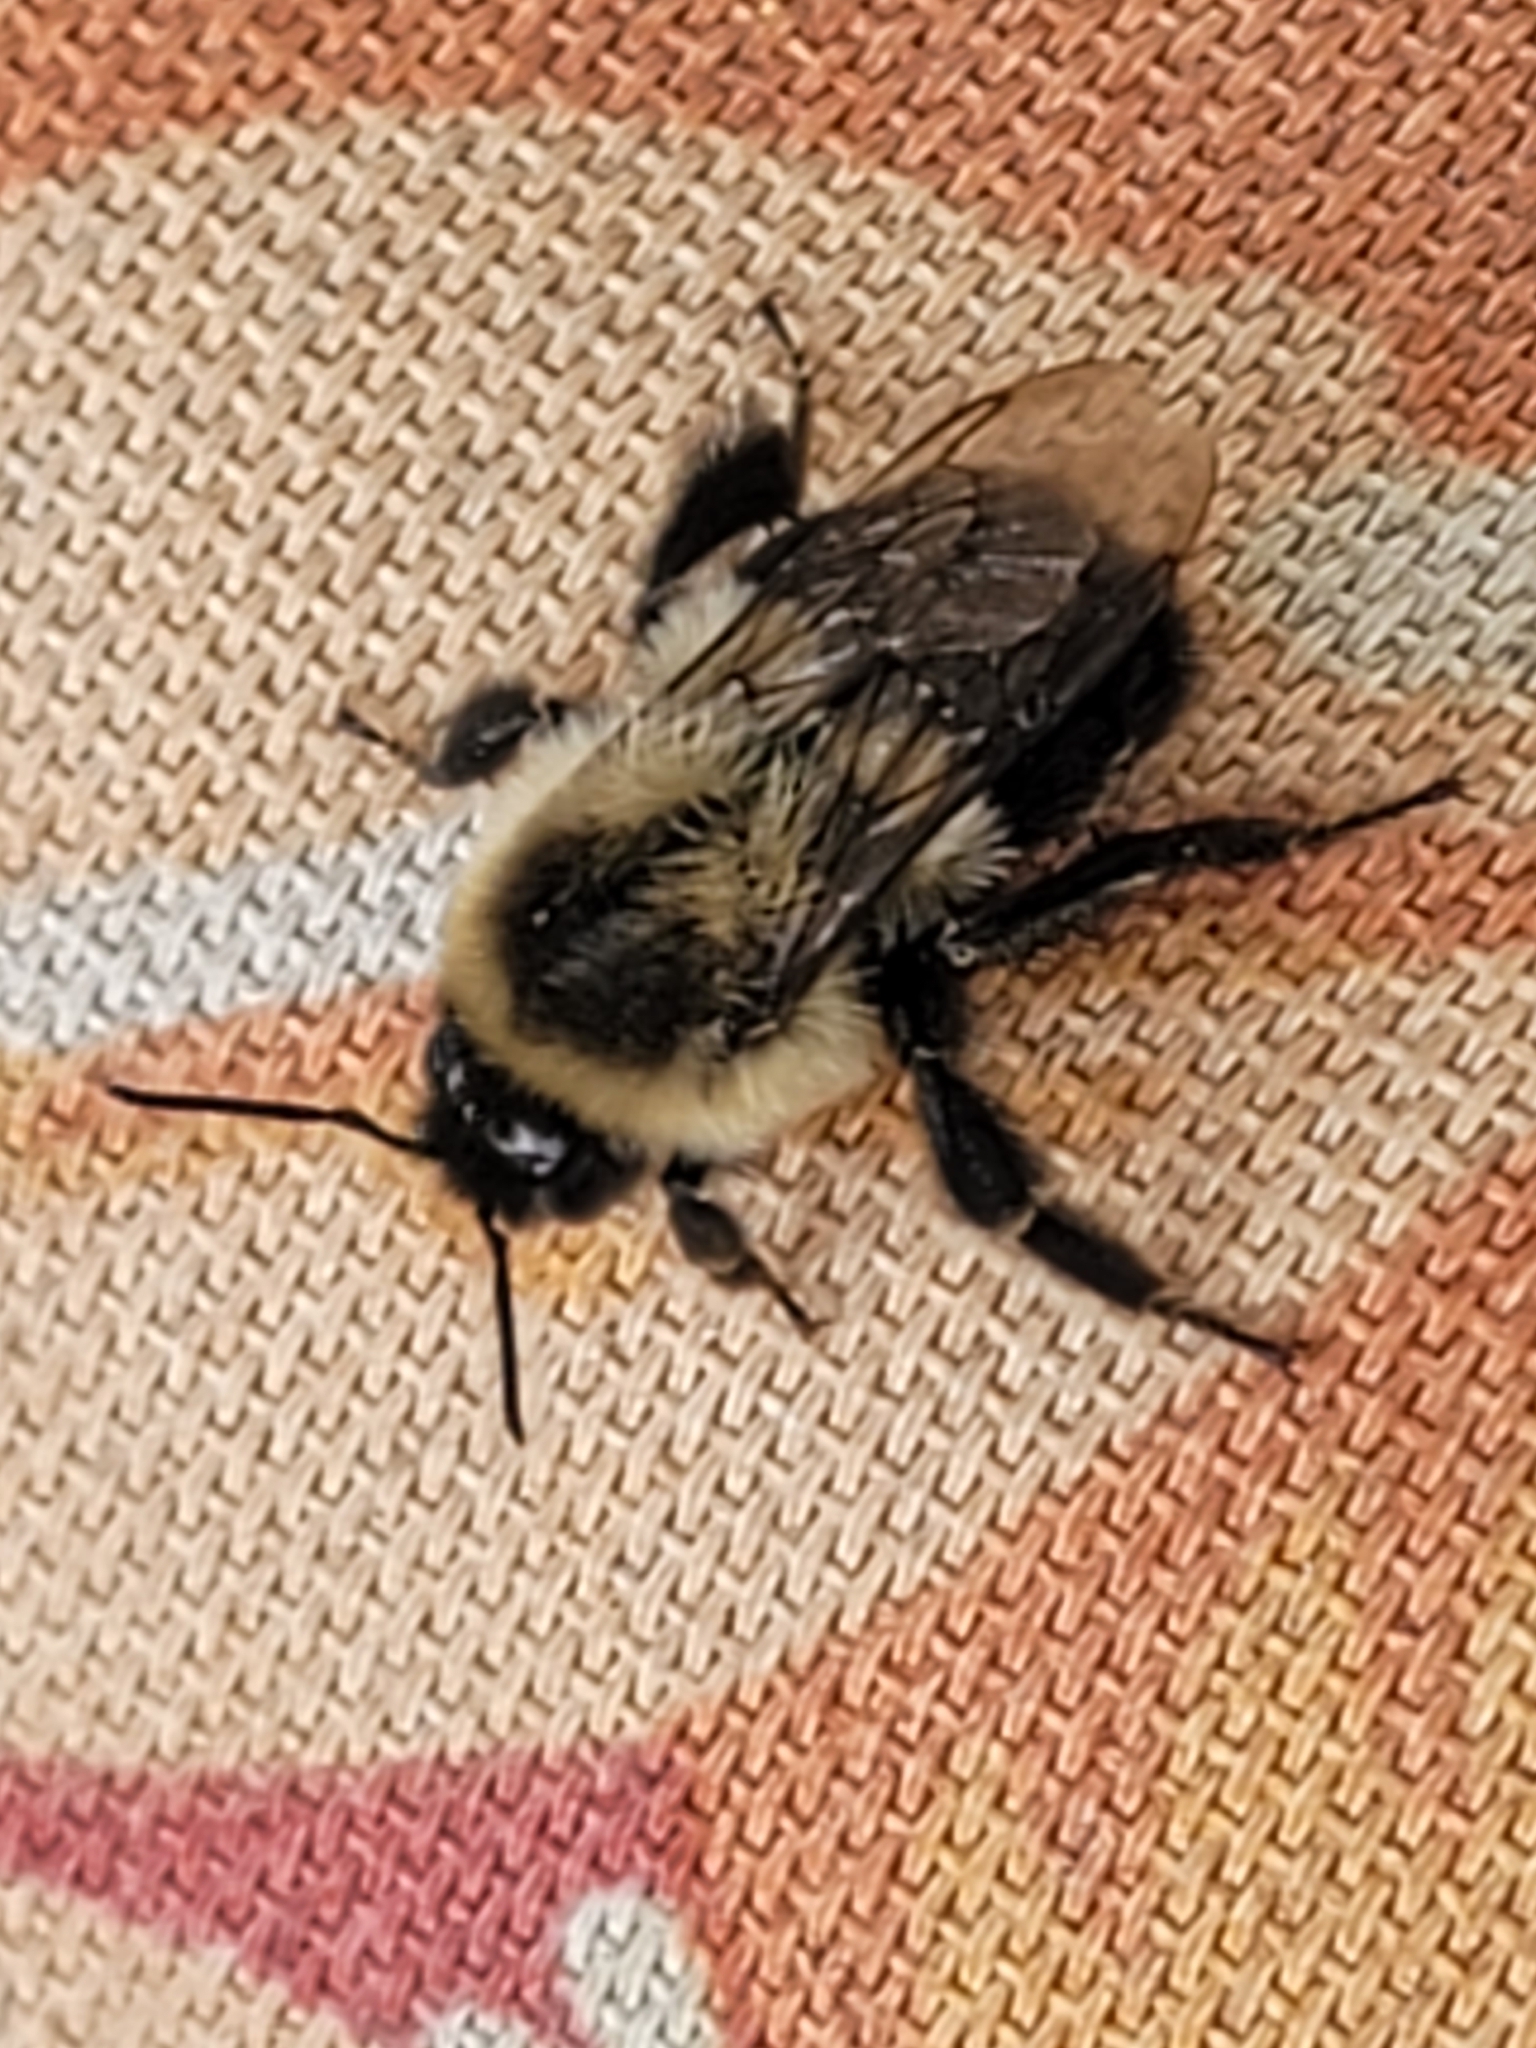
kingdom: Animalia
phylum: Arthropoda
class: Insecta
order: Hymenoptera
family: Apidae
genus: Bombus
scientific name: Bombus impatiens
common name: Common eastern bumble bee
